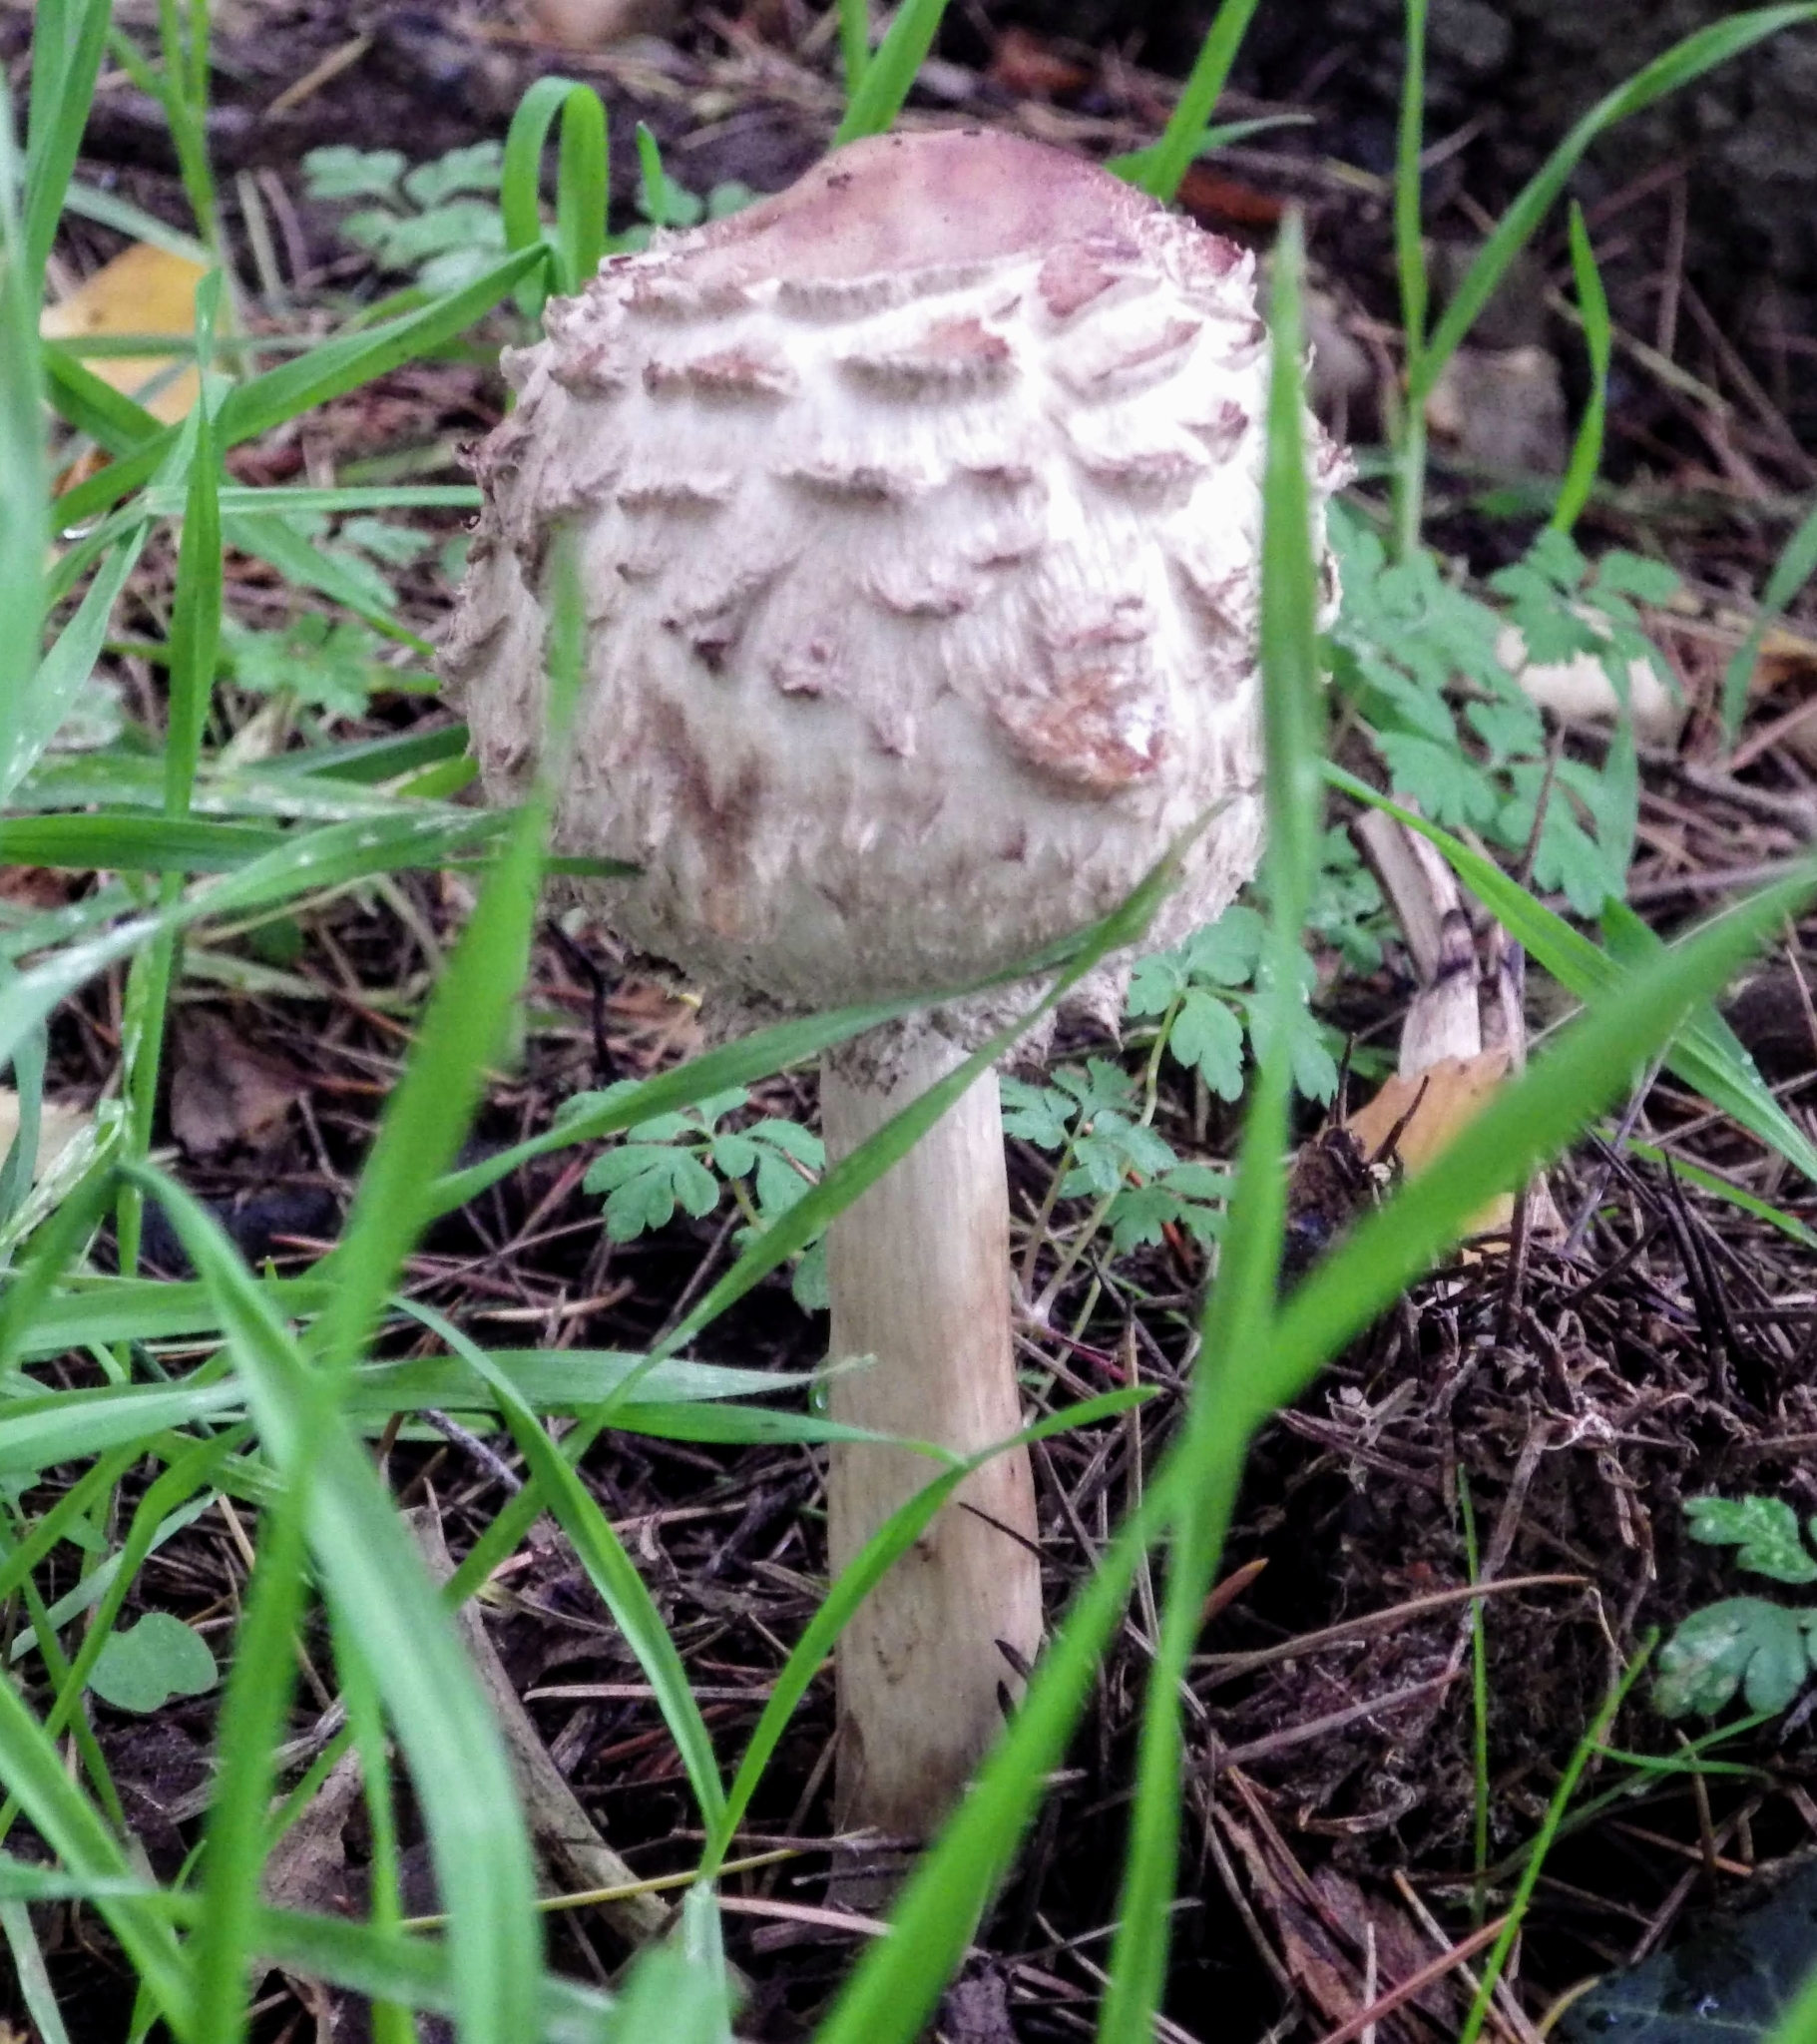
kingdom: Fungi
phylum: Basidiomycota
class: Agaricomycetes
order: Agaricales
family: Agaricaceae
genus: Chlorophyllum
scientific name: Chlorophyllum rhacodes
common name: Shaggy parasol
